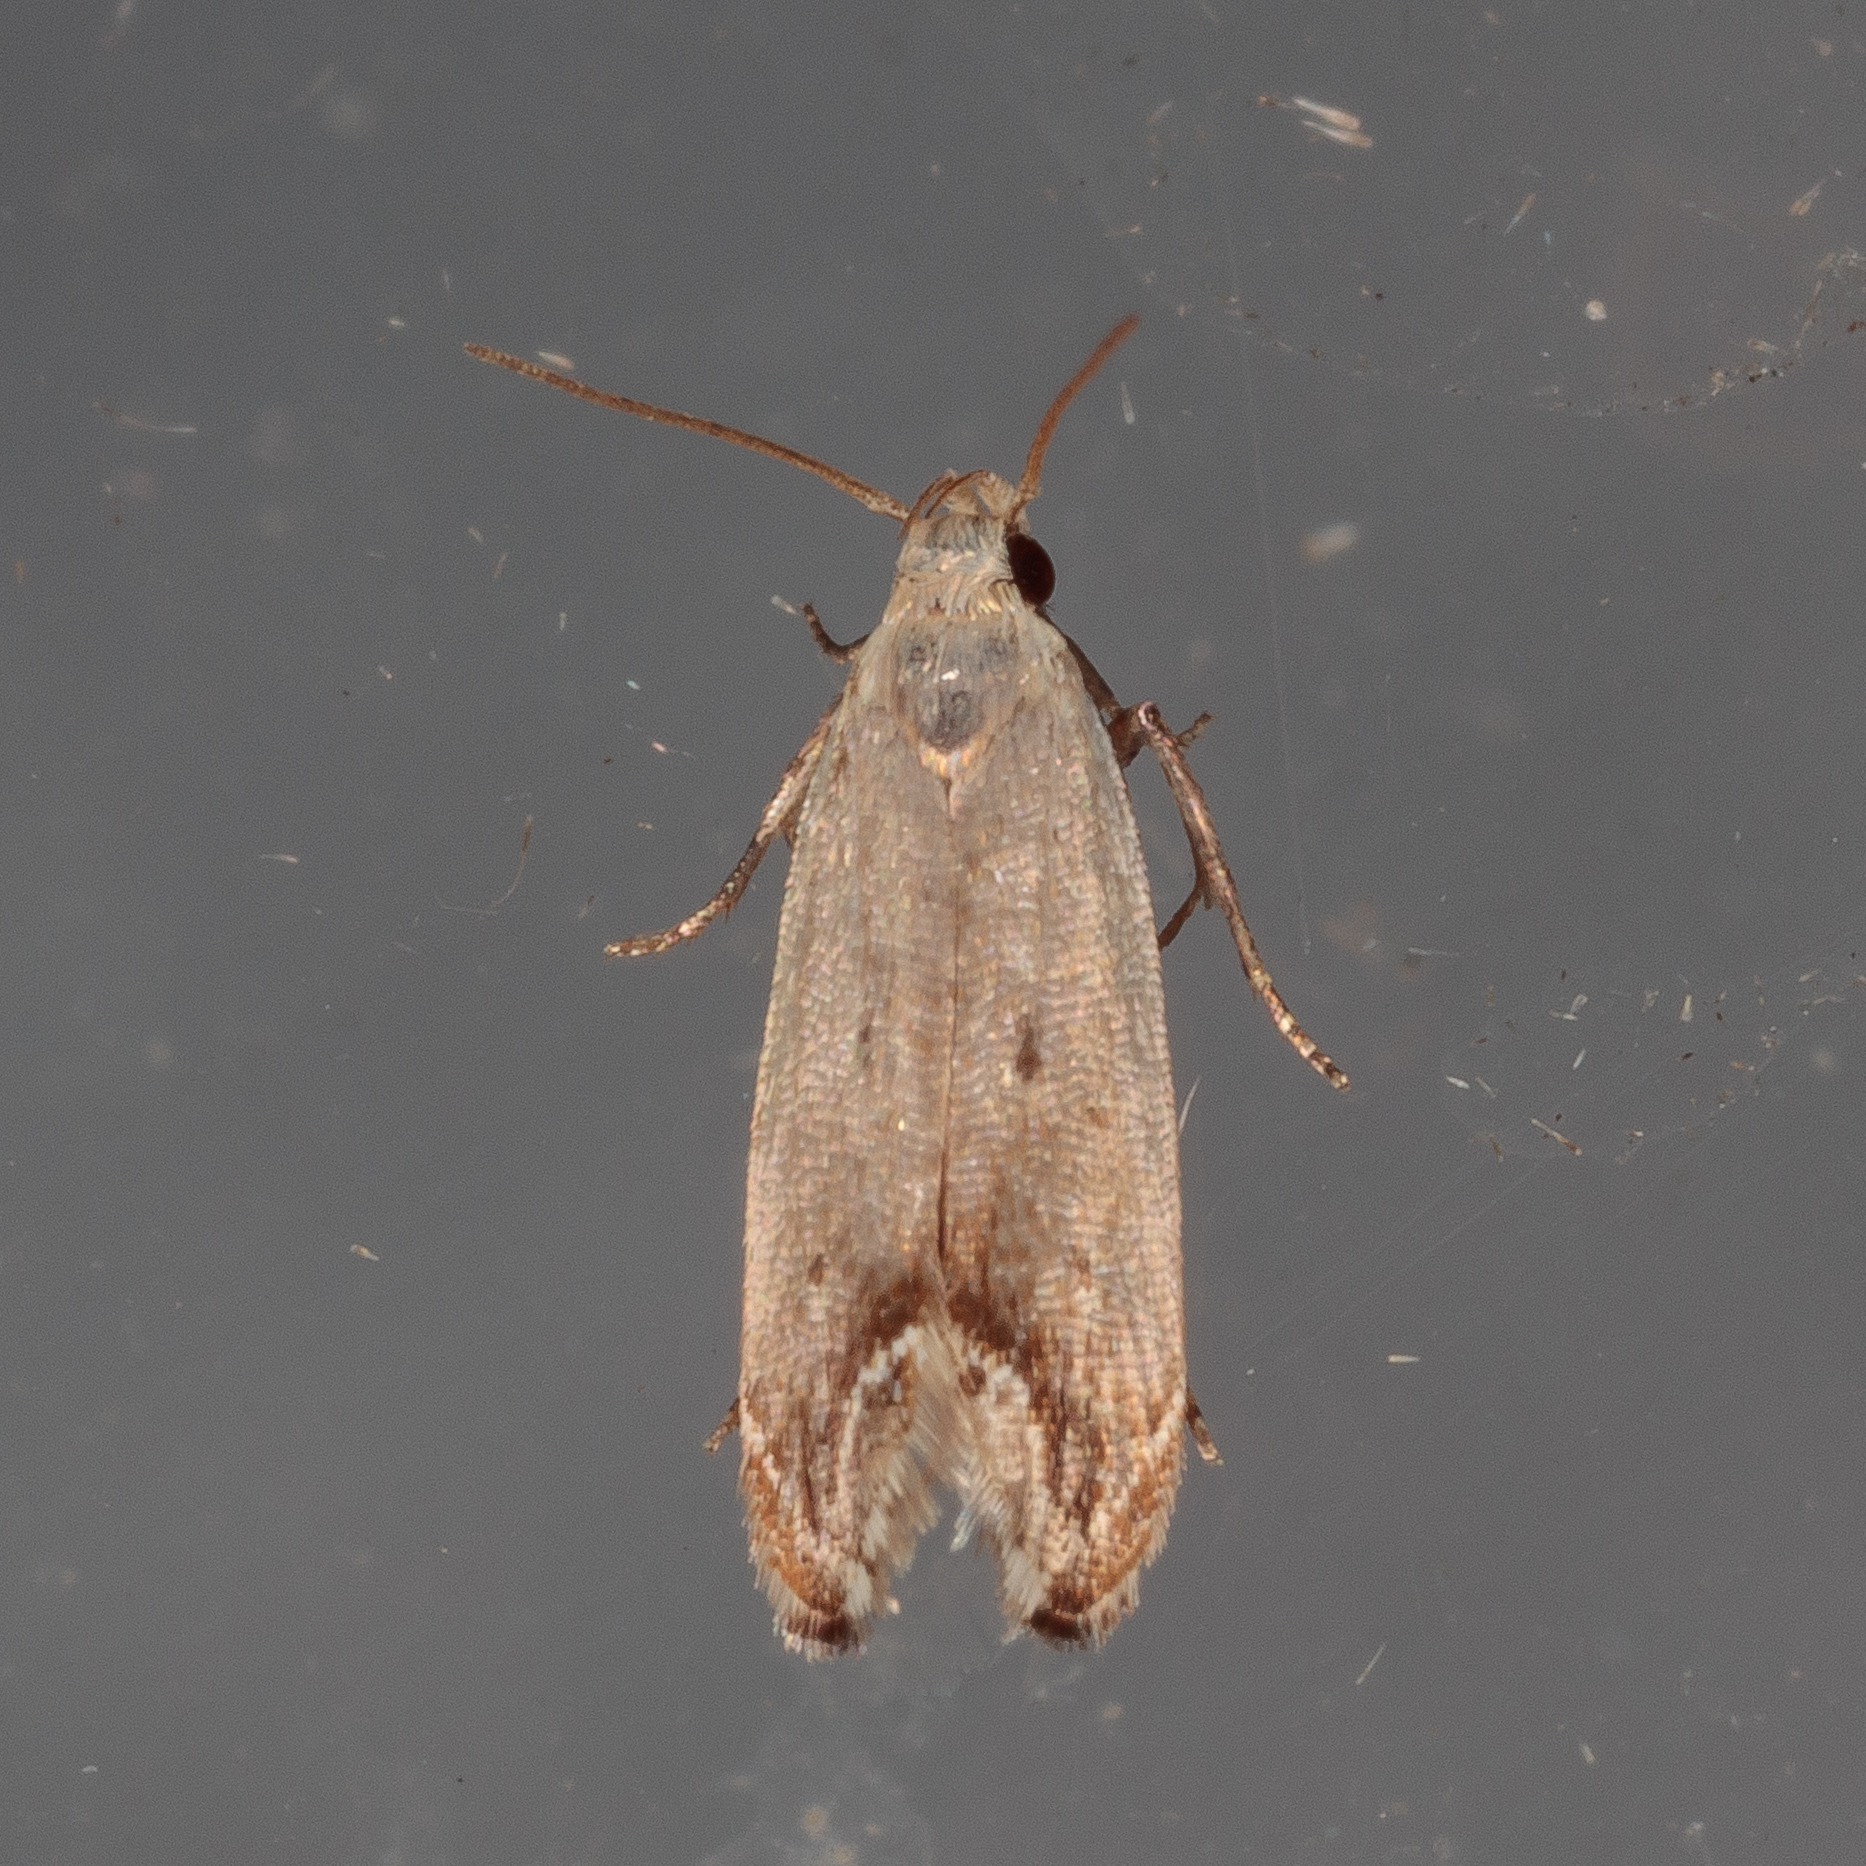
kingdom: Animalia
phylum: Arthropoda
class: Insecta
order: Lepidoptera
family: Gelechiidae
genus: Anacampsis
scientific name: Anacampsis paltodoriella
